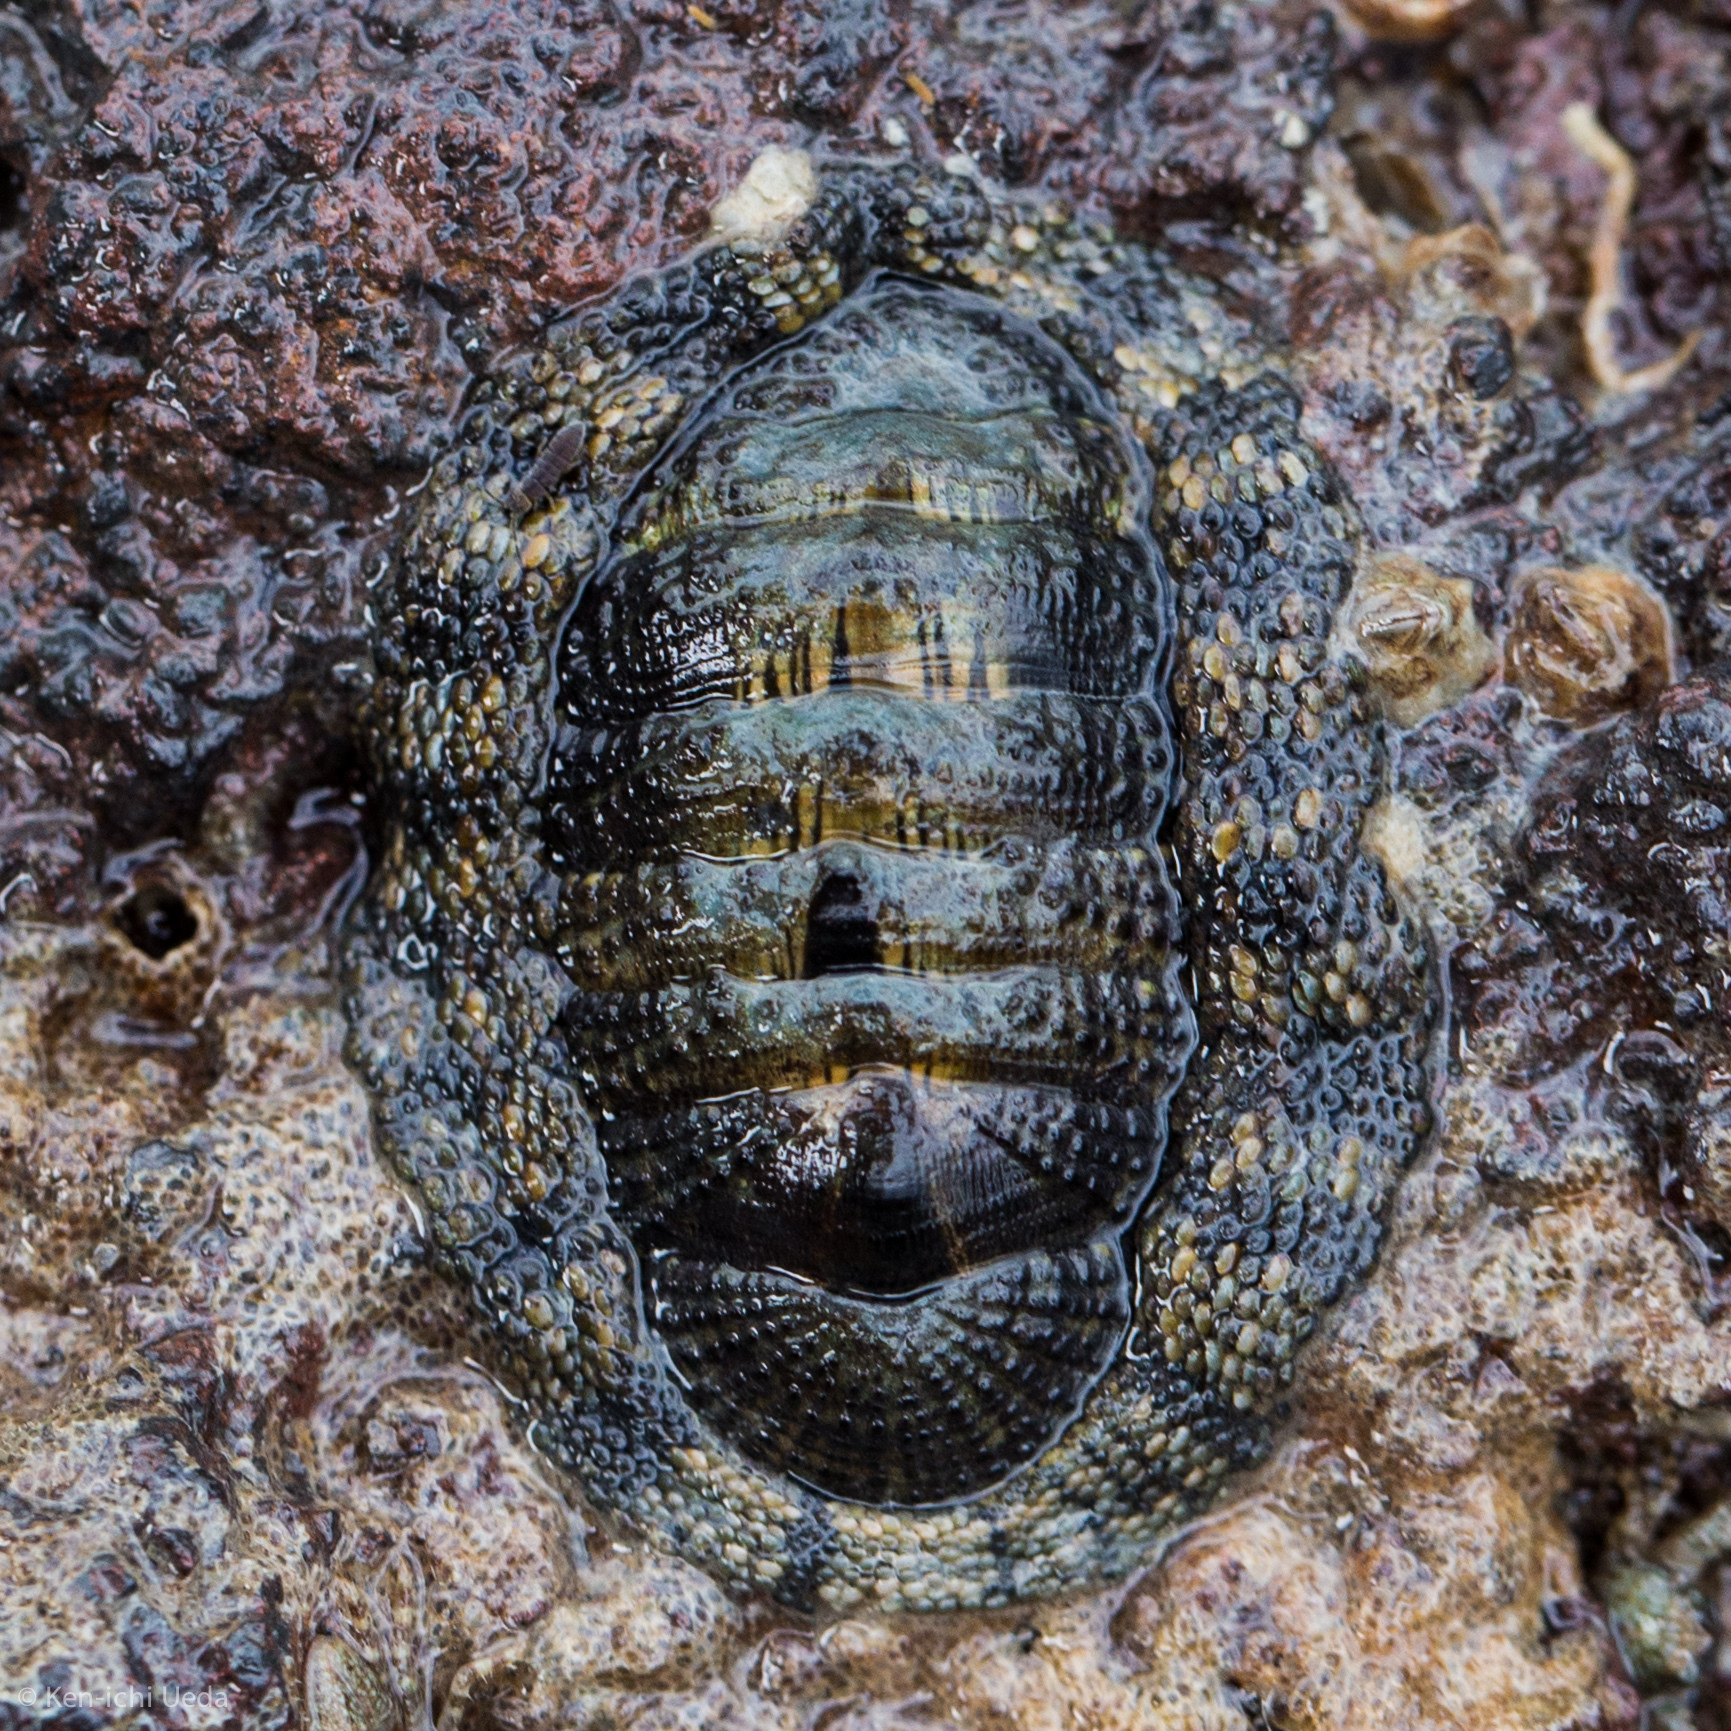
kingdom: Animalia
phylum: Mollusca
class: Polyplacophora
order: Chitonida
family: Chitonidae
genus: Sypharochiton
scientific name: Sypharochiton pelliserpentis
